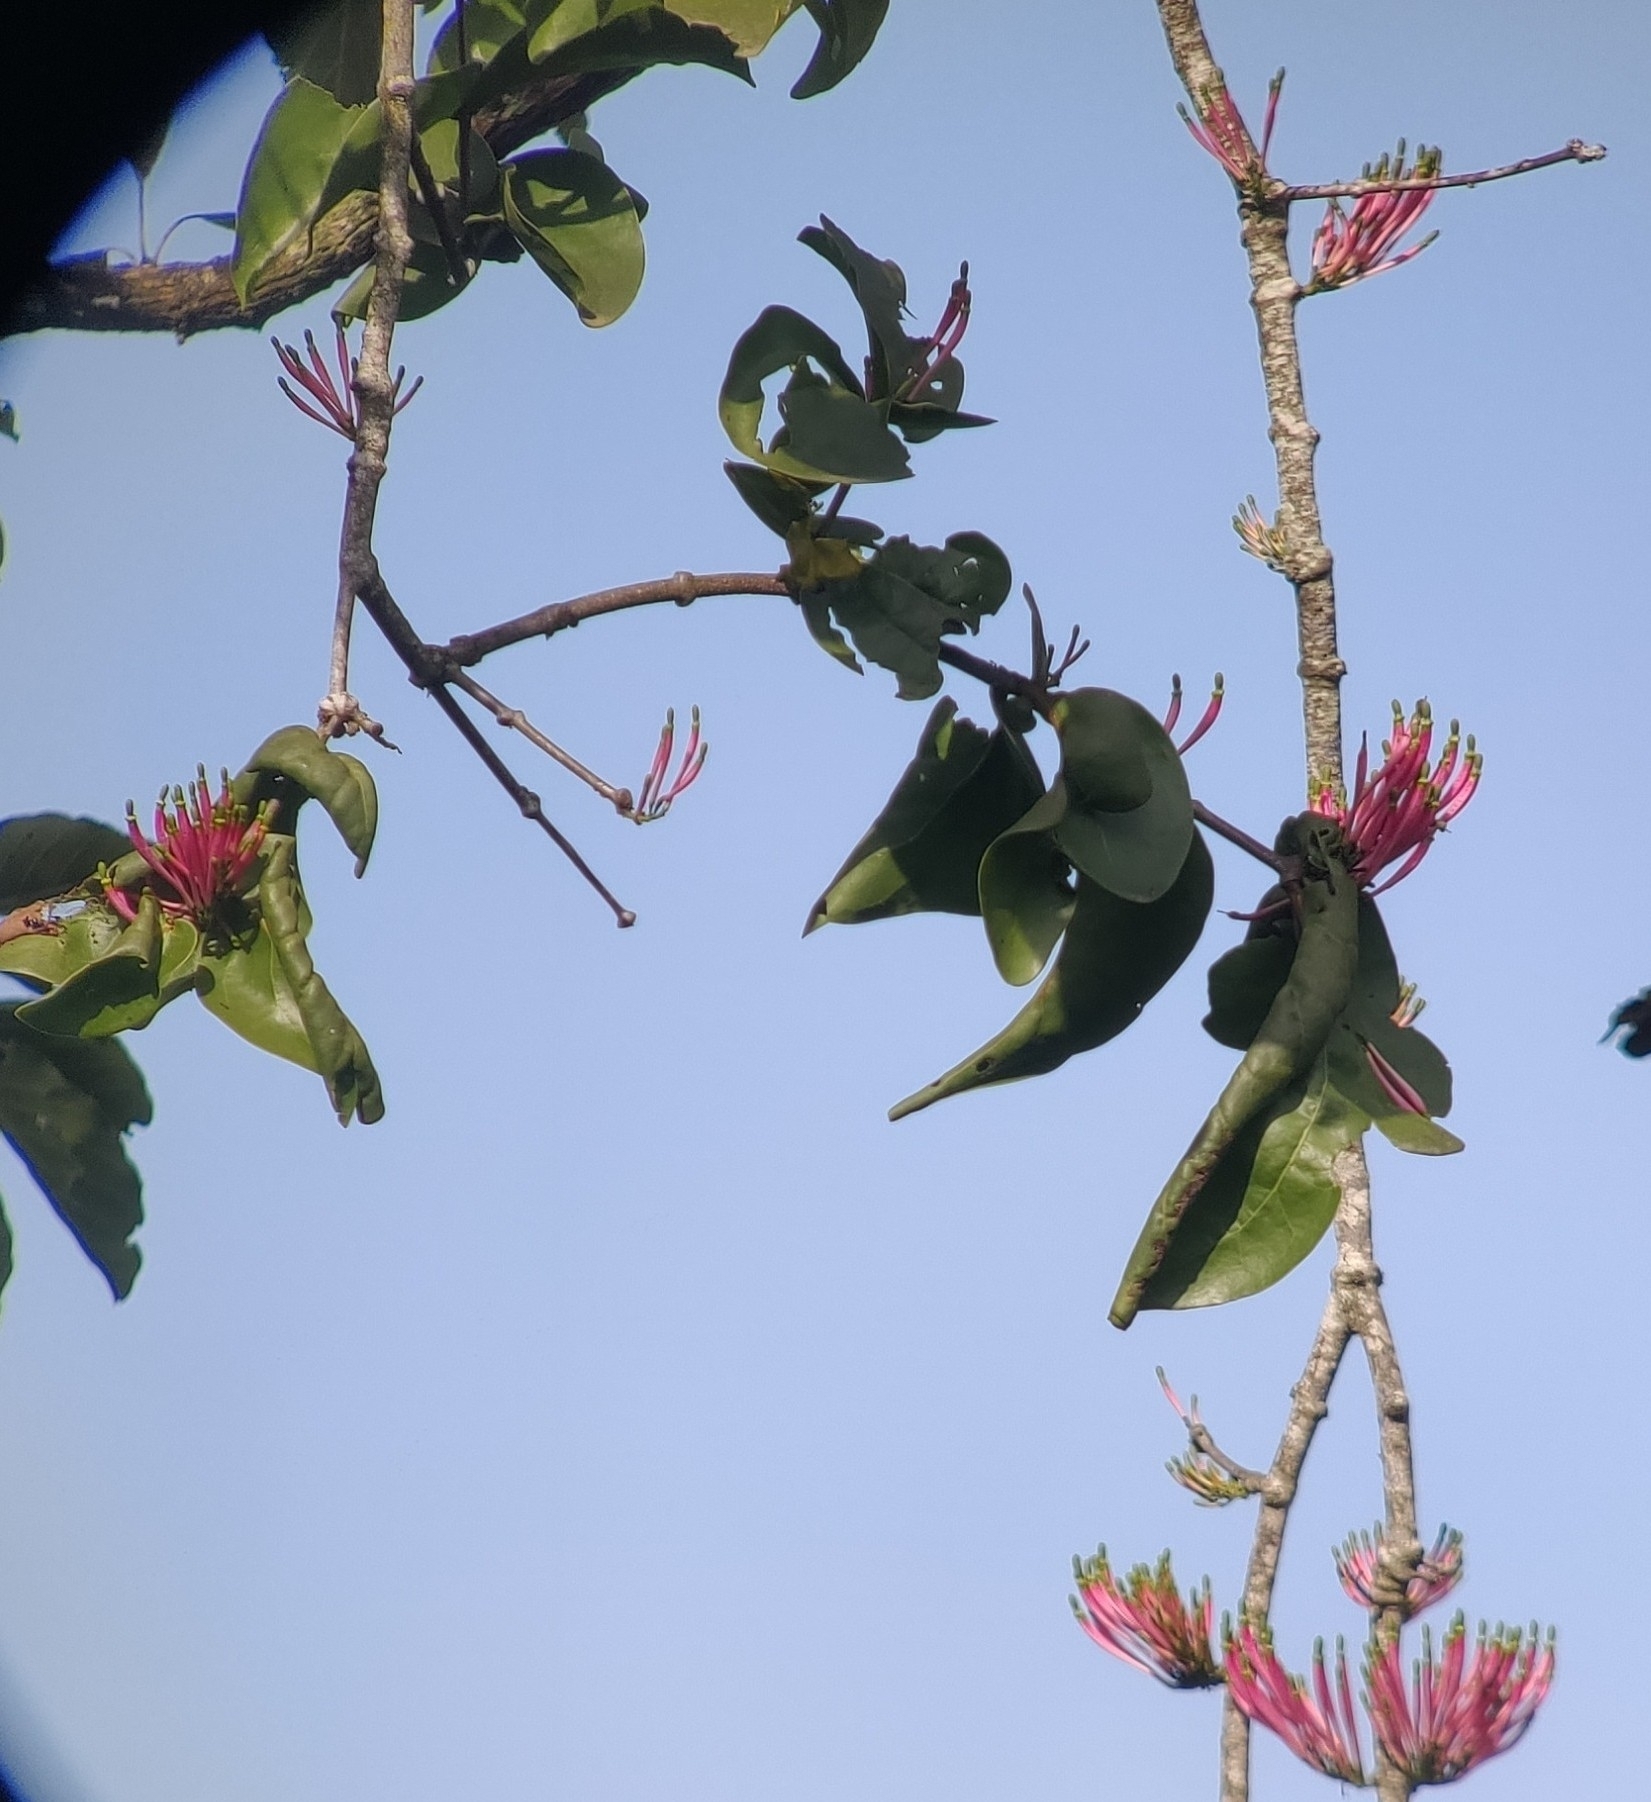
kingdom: Plantae
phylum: Tracheophyta
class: Magnoliopsida
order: Santalales
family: Loranthaceae
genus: Dendrophthoe
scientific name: Dendrophthoe falcata
